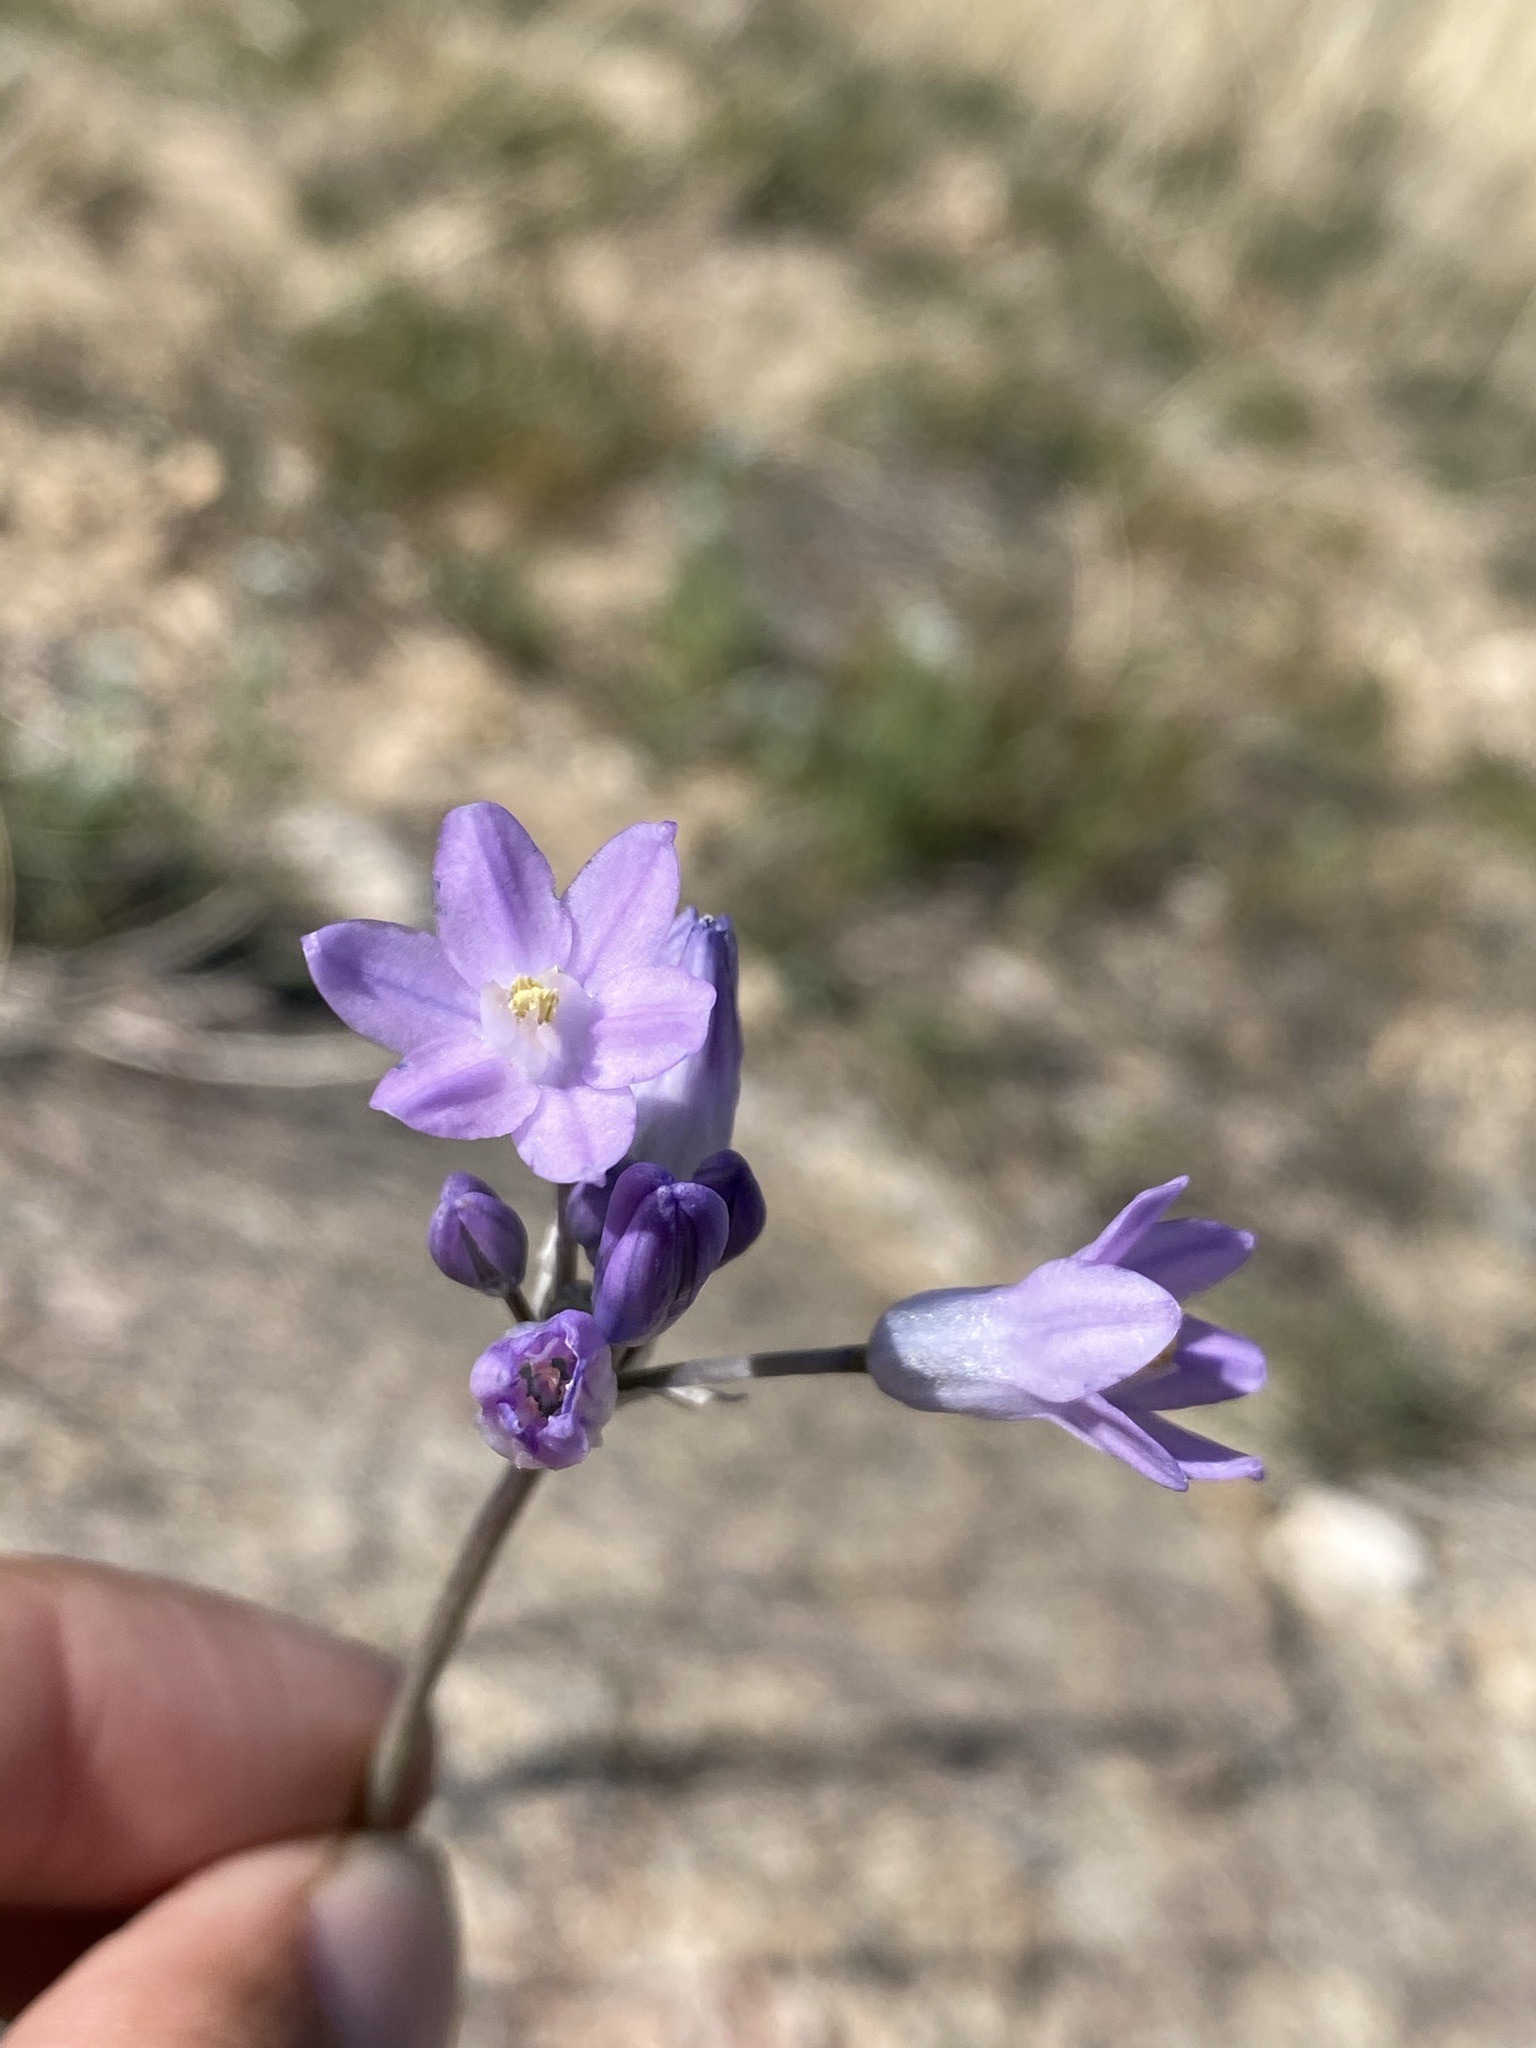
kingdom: Plantae
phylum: Tracheophyta
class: Liliopsida
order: Asparagales
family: Asparagaceae
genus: Dipterostemon
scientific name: Dipterostemon capitatus
